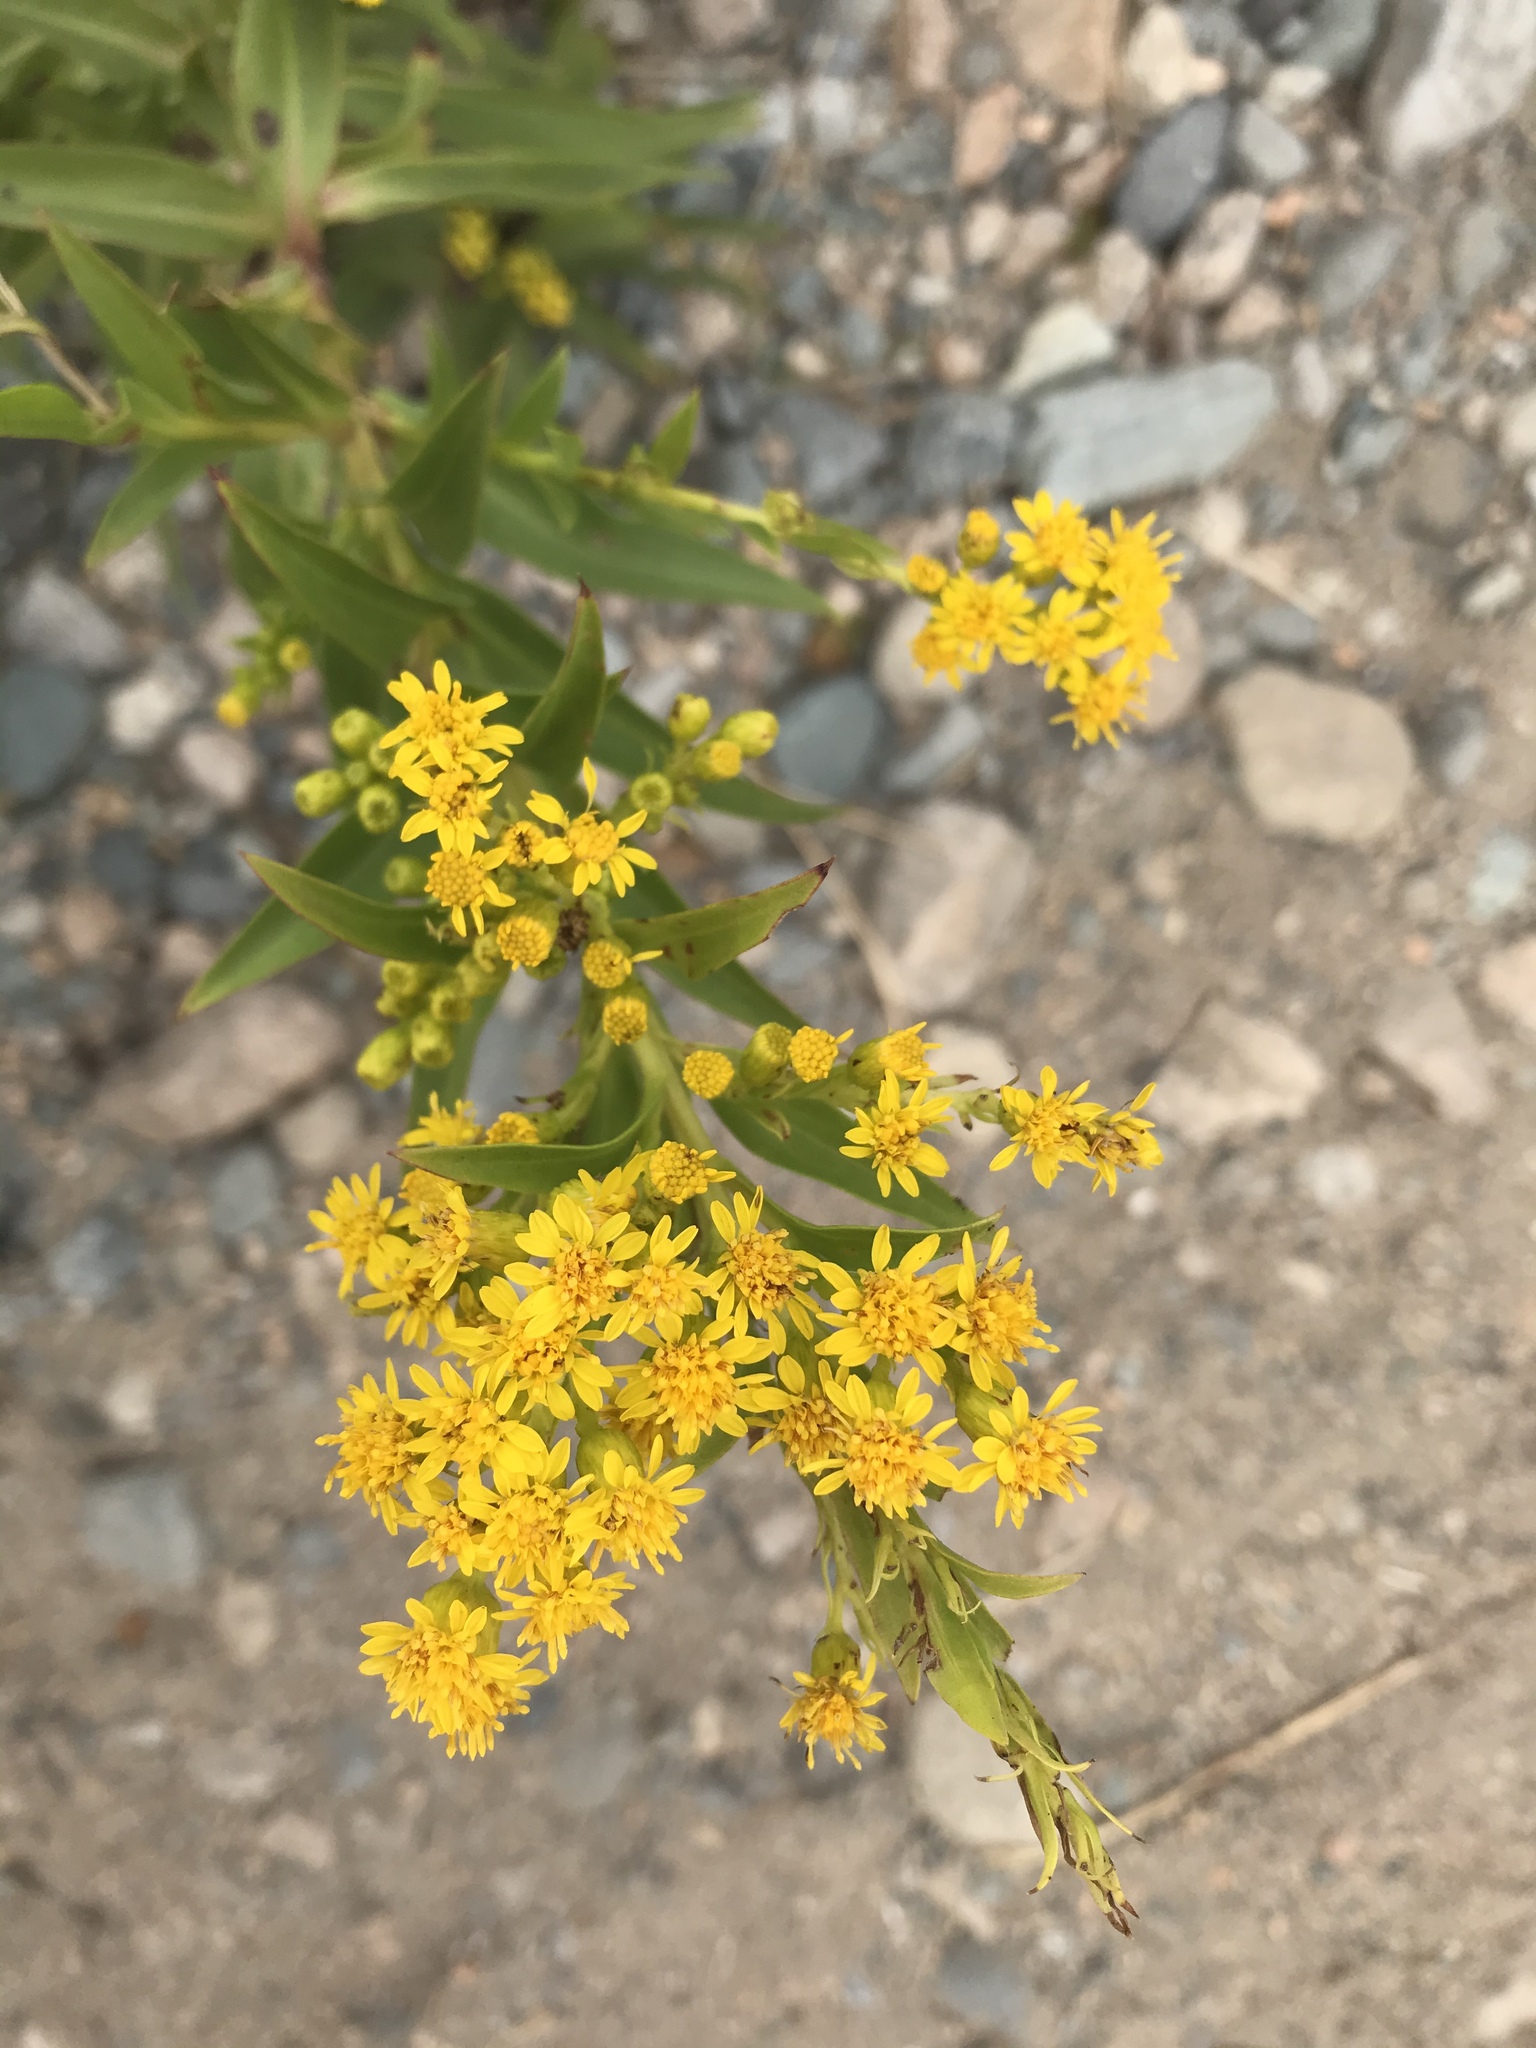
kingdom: Plantae
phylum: Tracheophyta
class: Magnoliopsida
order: Asterales
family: Asteraceae
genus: Solidago
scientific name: Solidago sempervirens
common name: Salt-marsh goldenrod
